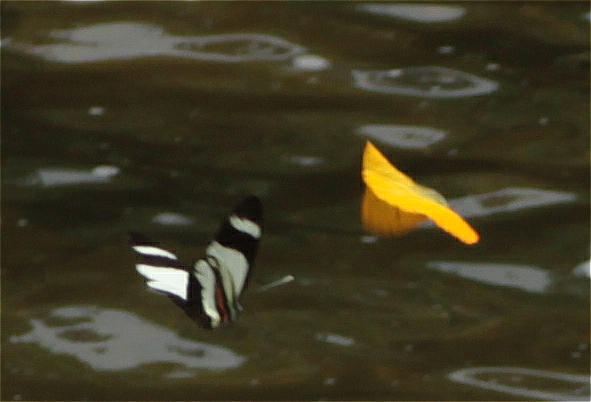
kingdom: Animalia
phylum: Arthropoda
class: Insecta
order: Lepidoptera
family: Pieridae
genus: Perrhybris
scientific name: Perrhybris lorena
